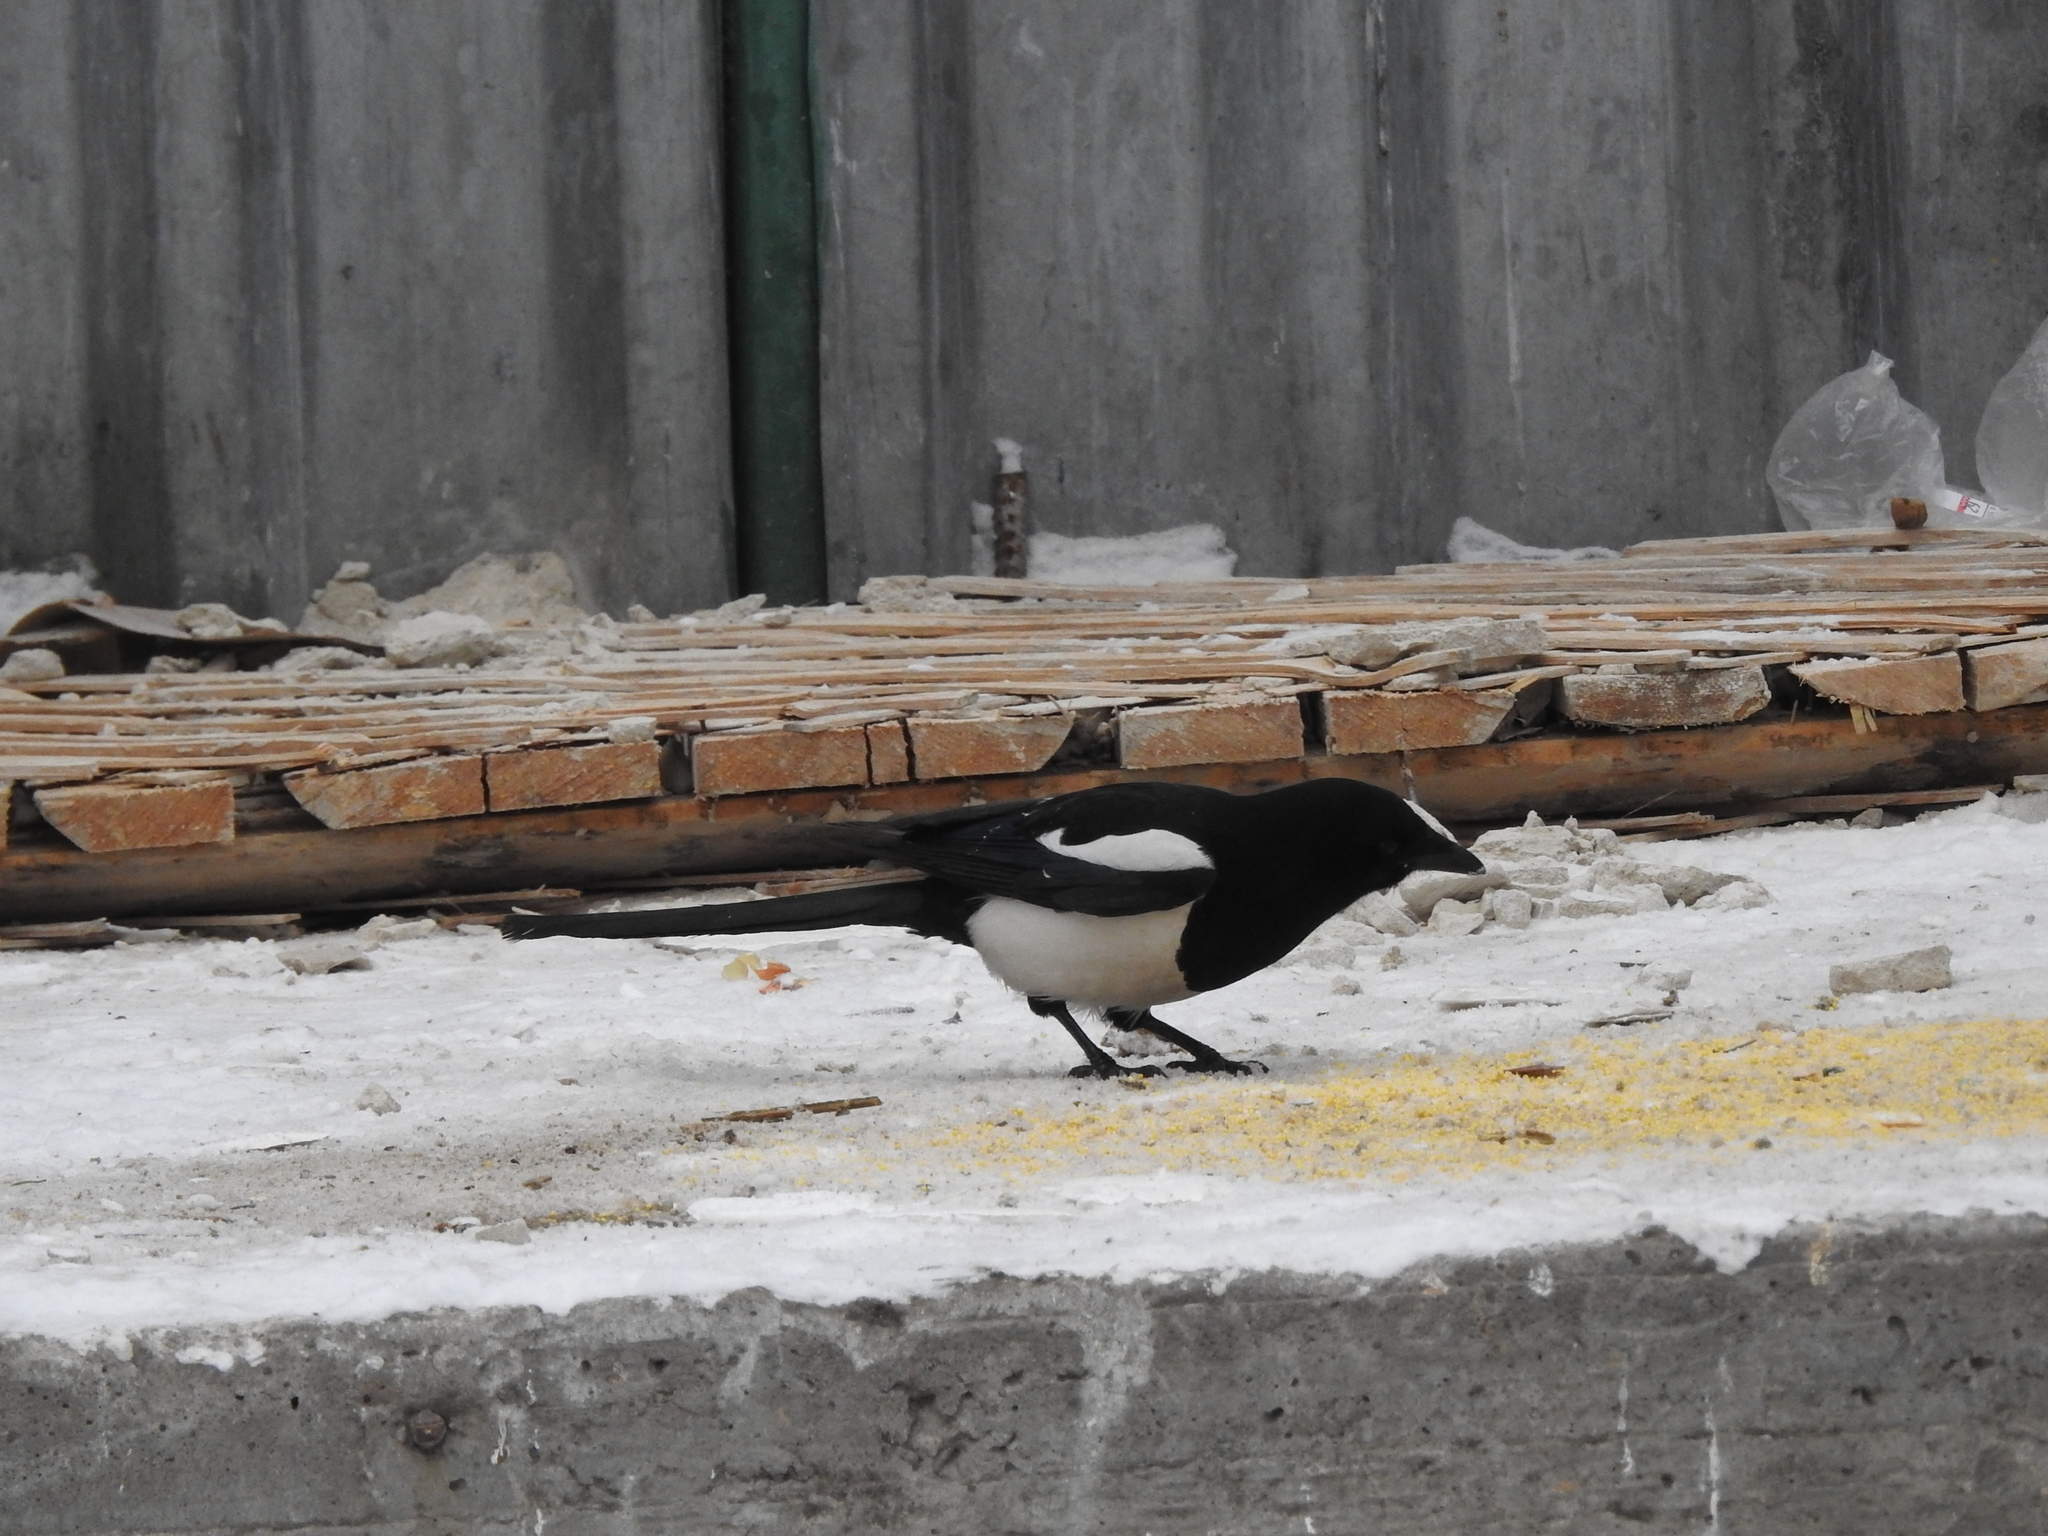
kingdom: Animalia
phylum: Chordata
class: Aves
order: Passeriformes
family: Corvidae
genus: Pica
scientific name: Pica pica
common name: Eurasian magpie
